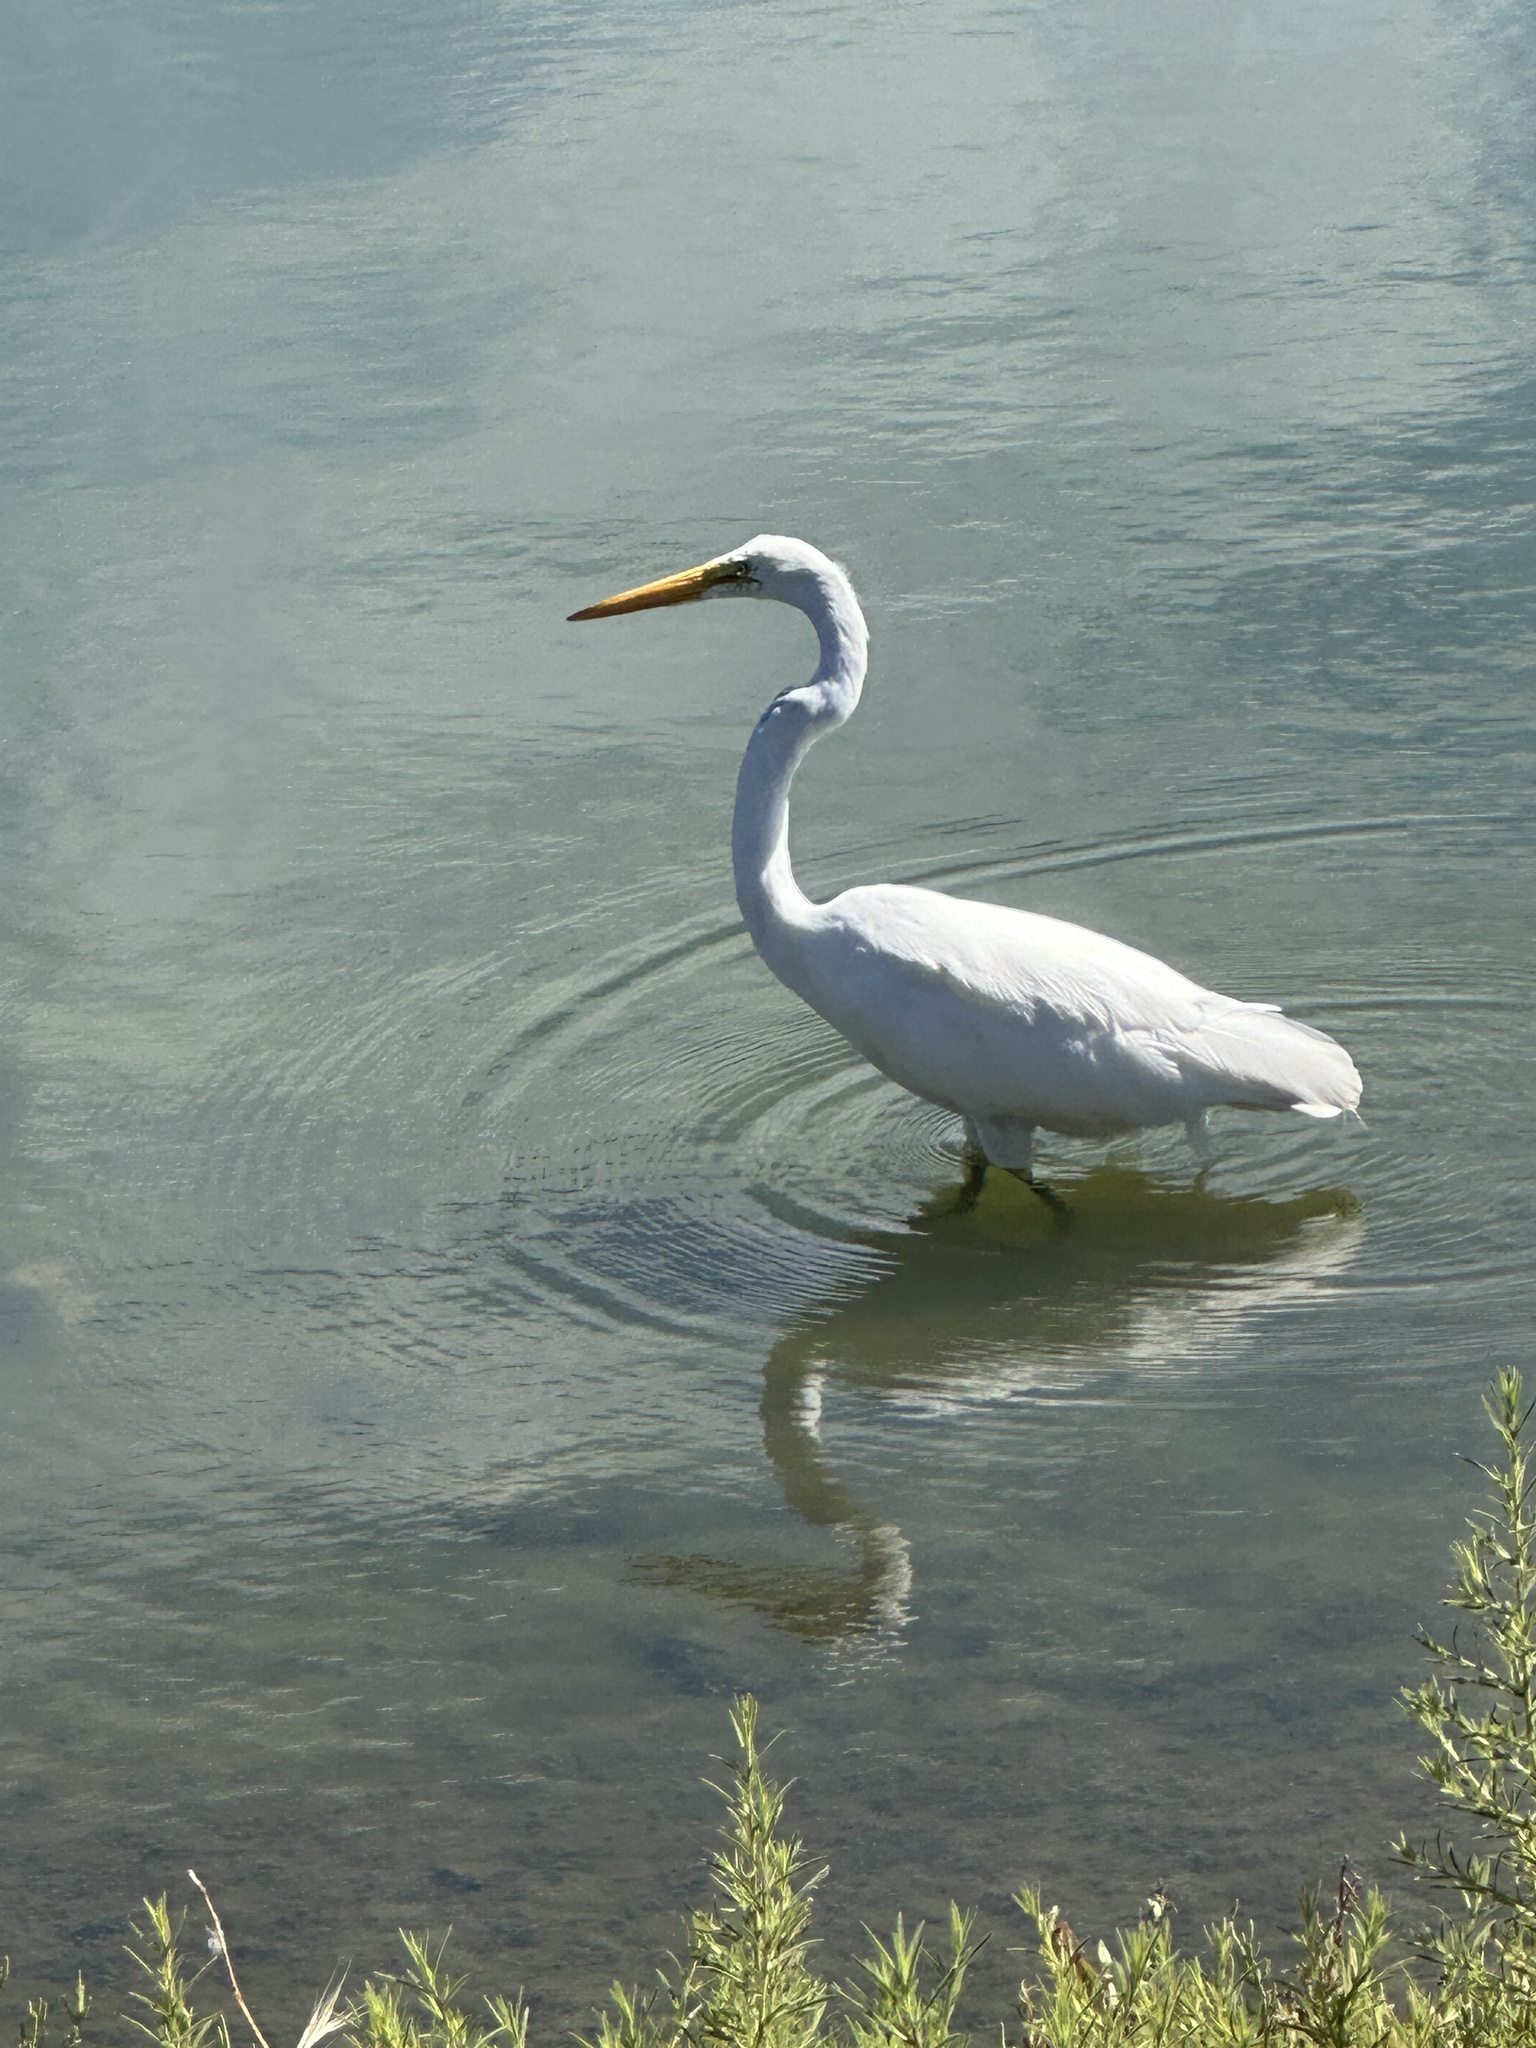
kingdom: Animalia
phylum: Chordata
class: Aves
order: Pelecaniformes
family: Ardeidae
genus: Ardea
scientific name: Ardea alba
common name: Great egret
